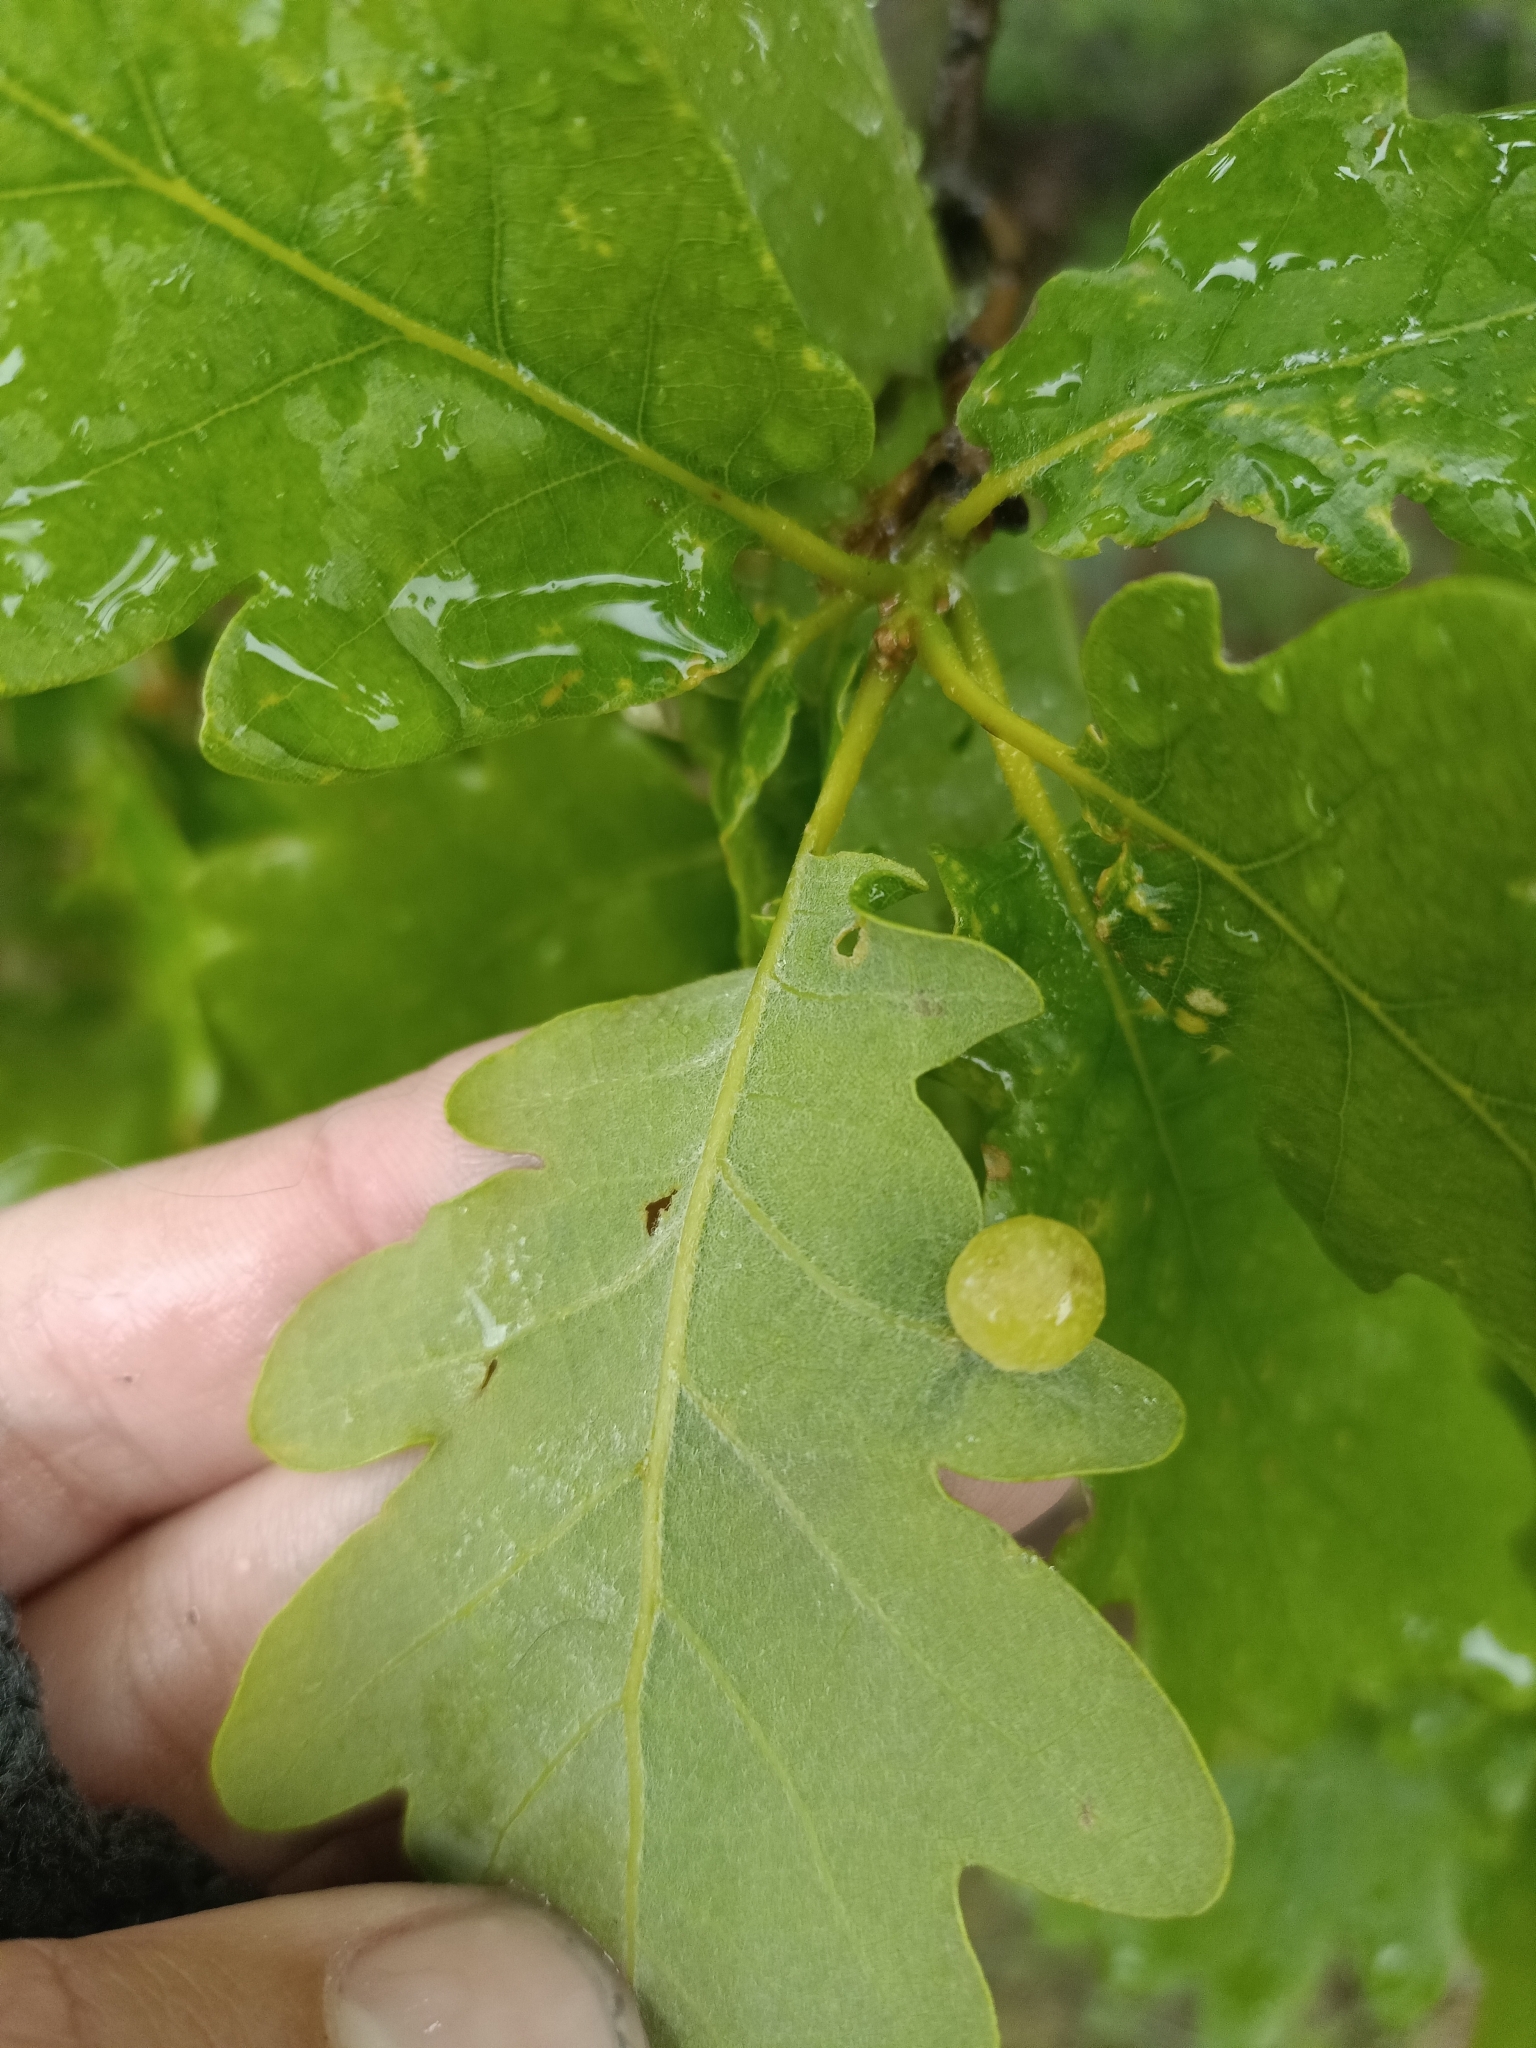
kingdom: Animalia
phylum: Arthropoda
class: Insecta
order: Hymenoptera
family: Cynipidae
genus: Neuroterus
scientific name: Neuroterus quercusbaccarum
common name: Common spangle gall
